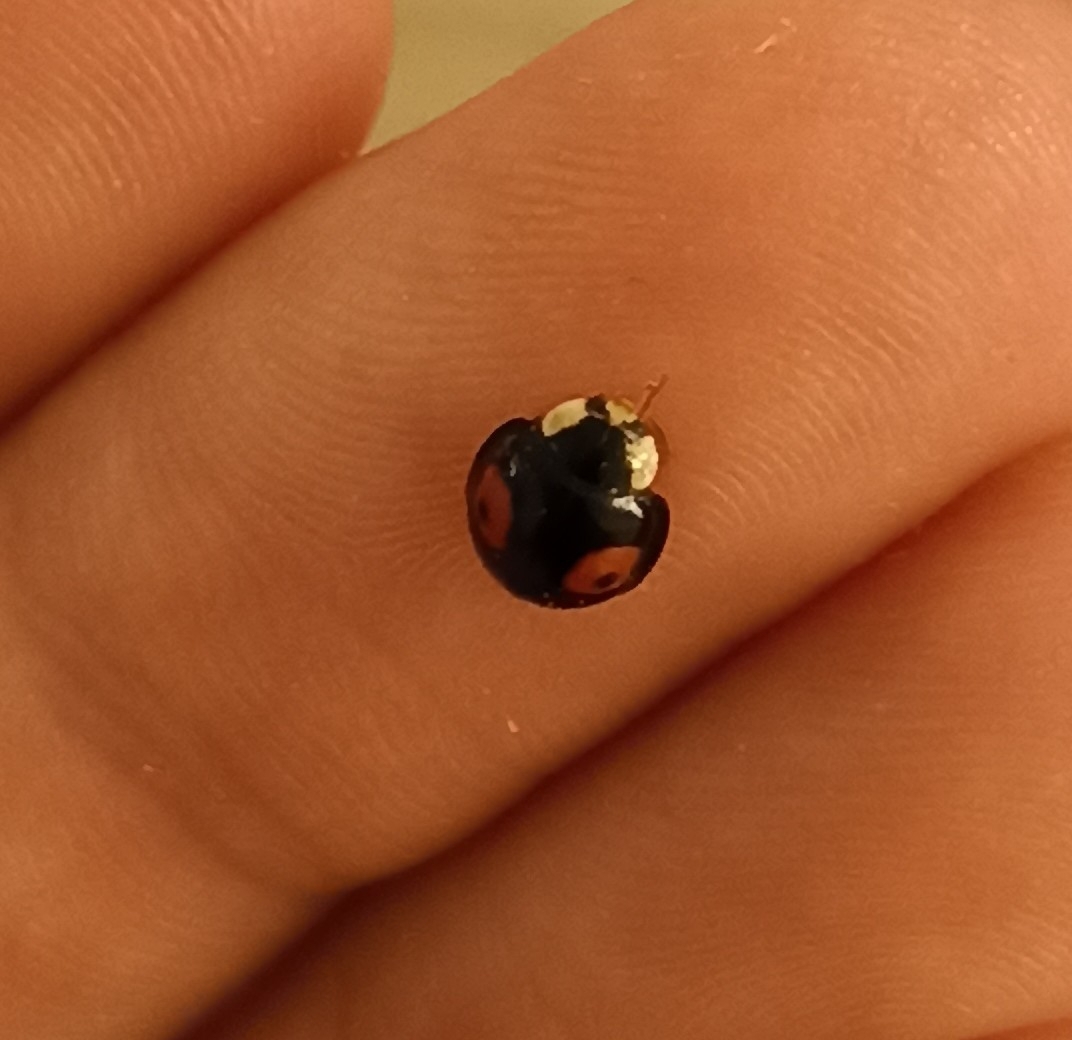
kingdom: Animalia
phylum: Arthropoda
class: Insecta
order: Coleoptera
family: Coccinellidae
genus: Harmonia
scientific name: Harmonia axyridis
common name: Harlequin ladybird
